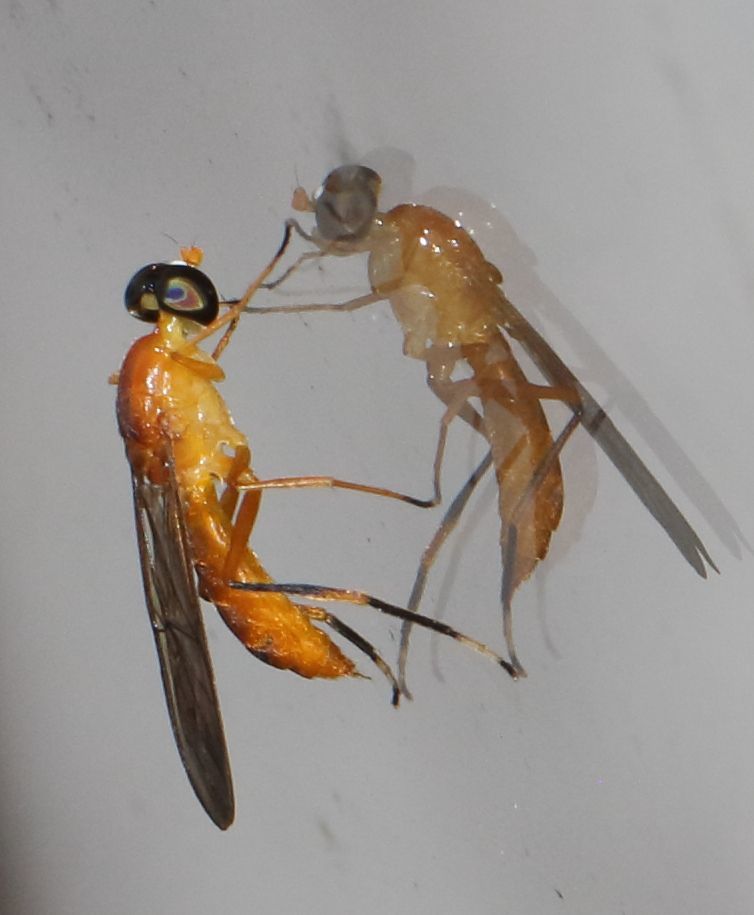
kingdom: Animalia
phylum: Arthropoda
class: Insecta
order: Diptera
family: Stratiomyidae
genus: Ptecticus
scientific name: Ptecticus posticus
